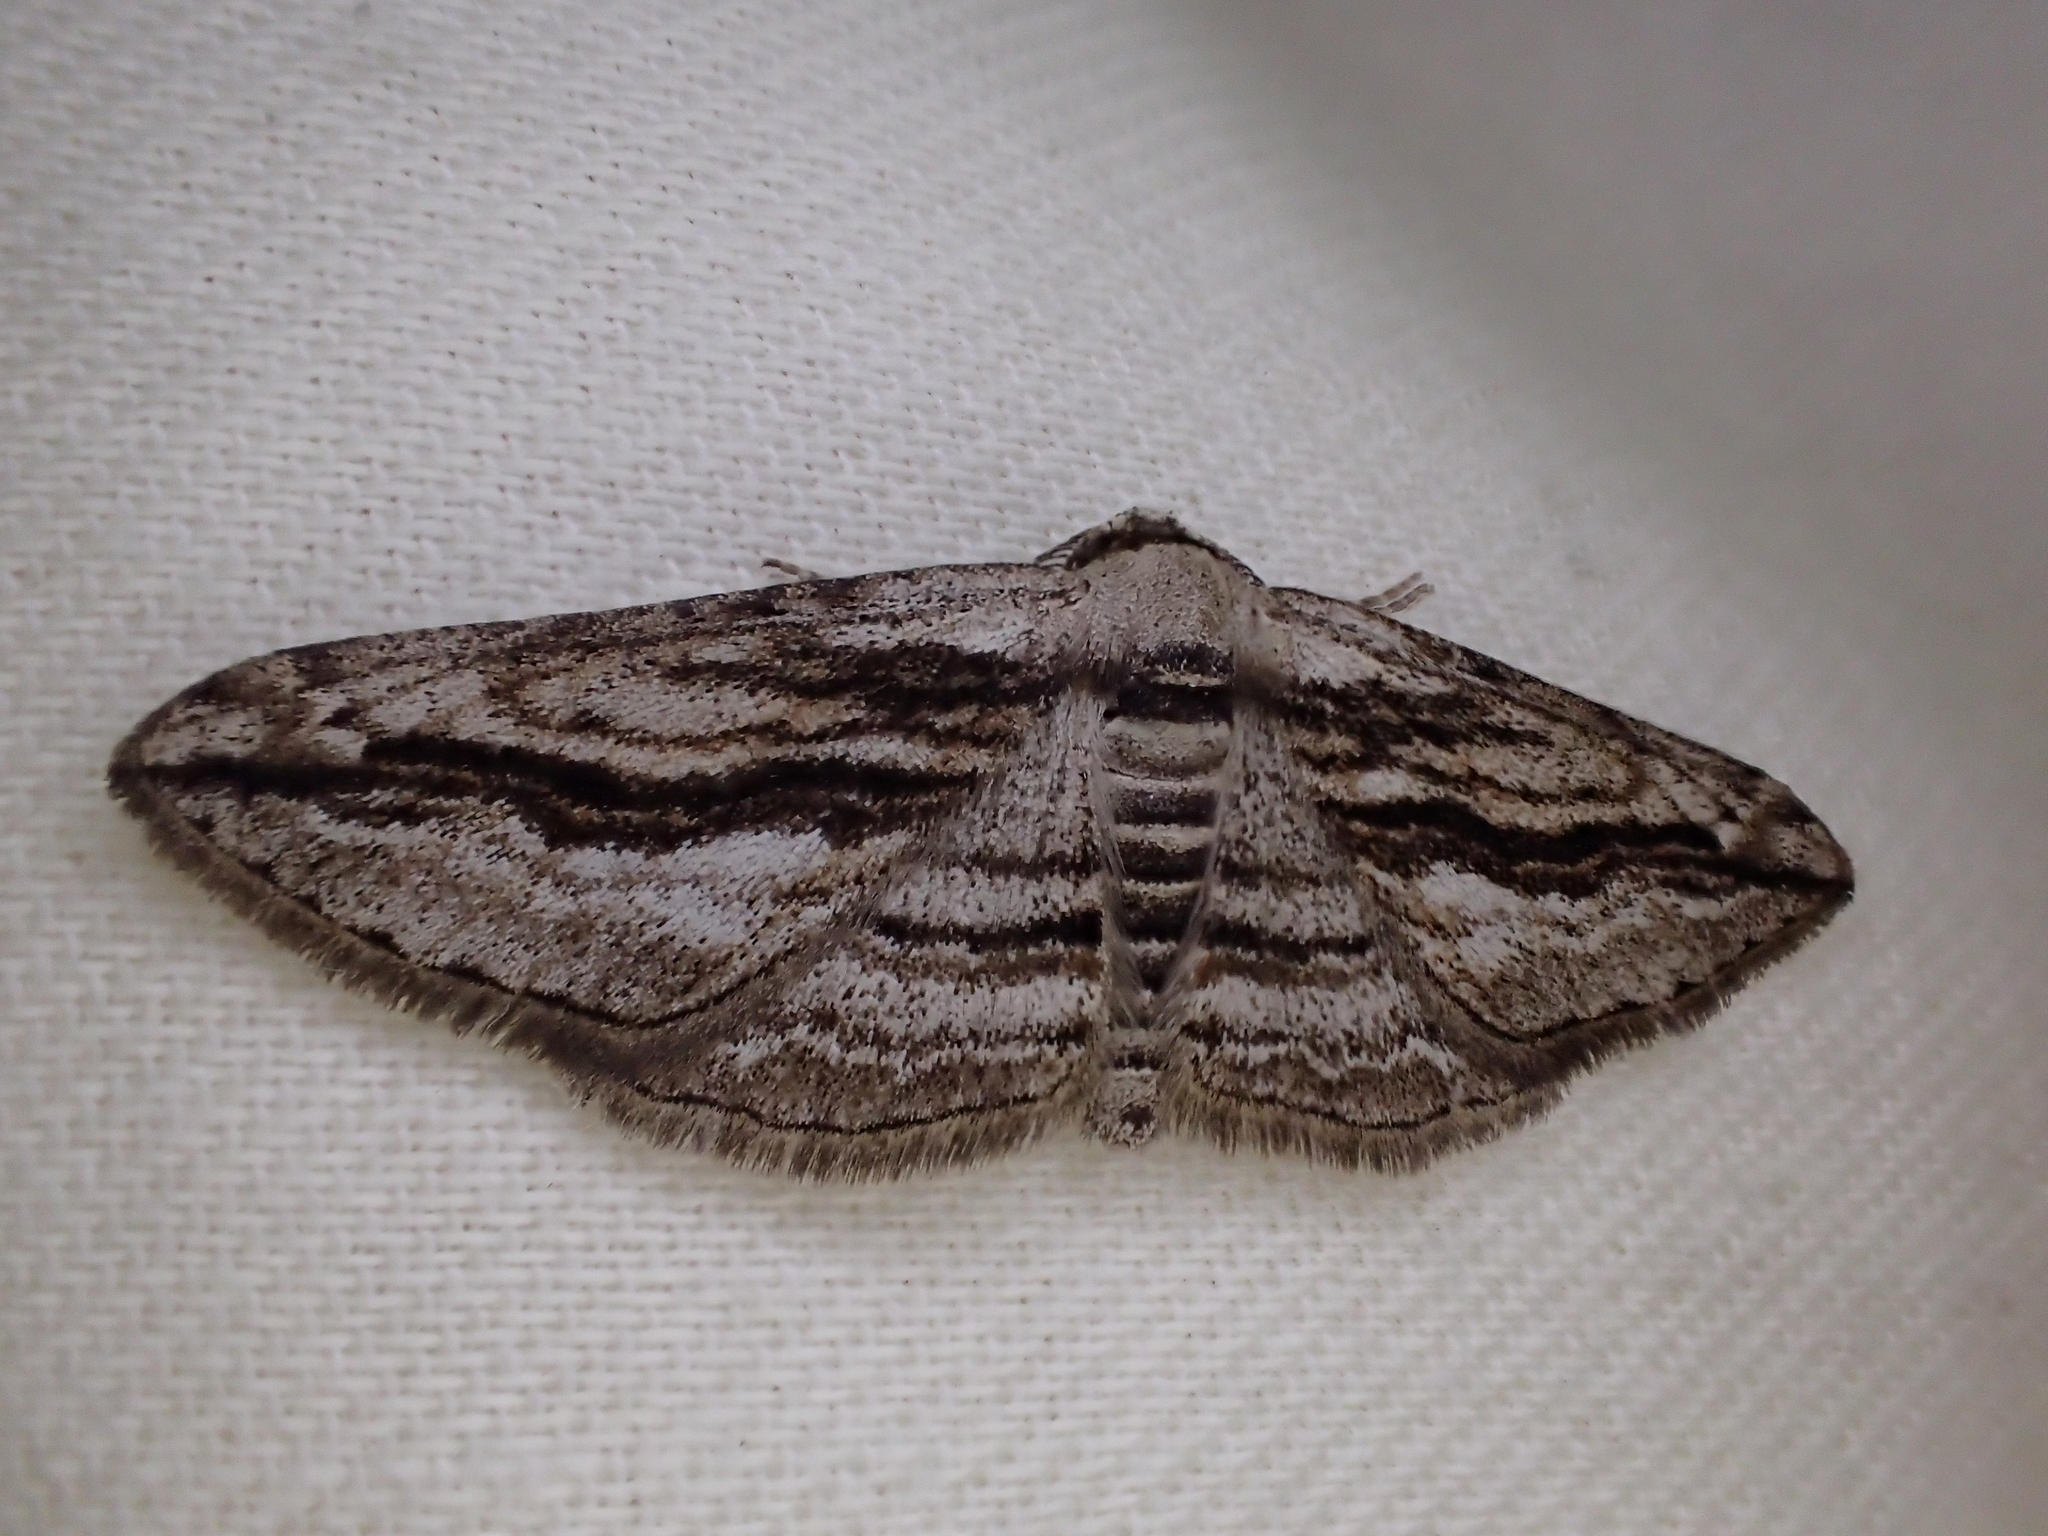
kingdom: Animalia
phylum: Arthropoda
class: Insecta
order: Lepidoptera
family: Geometridae
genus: Ecleora
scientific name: Ecleora solieraria
